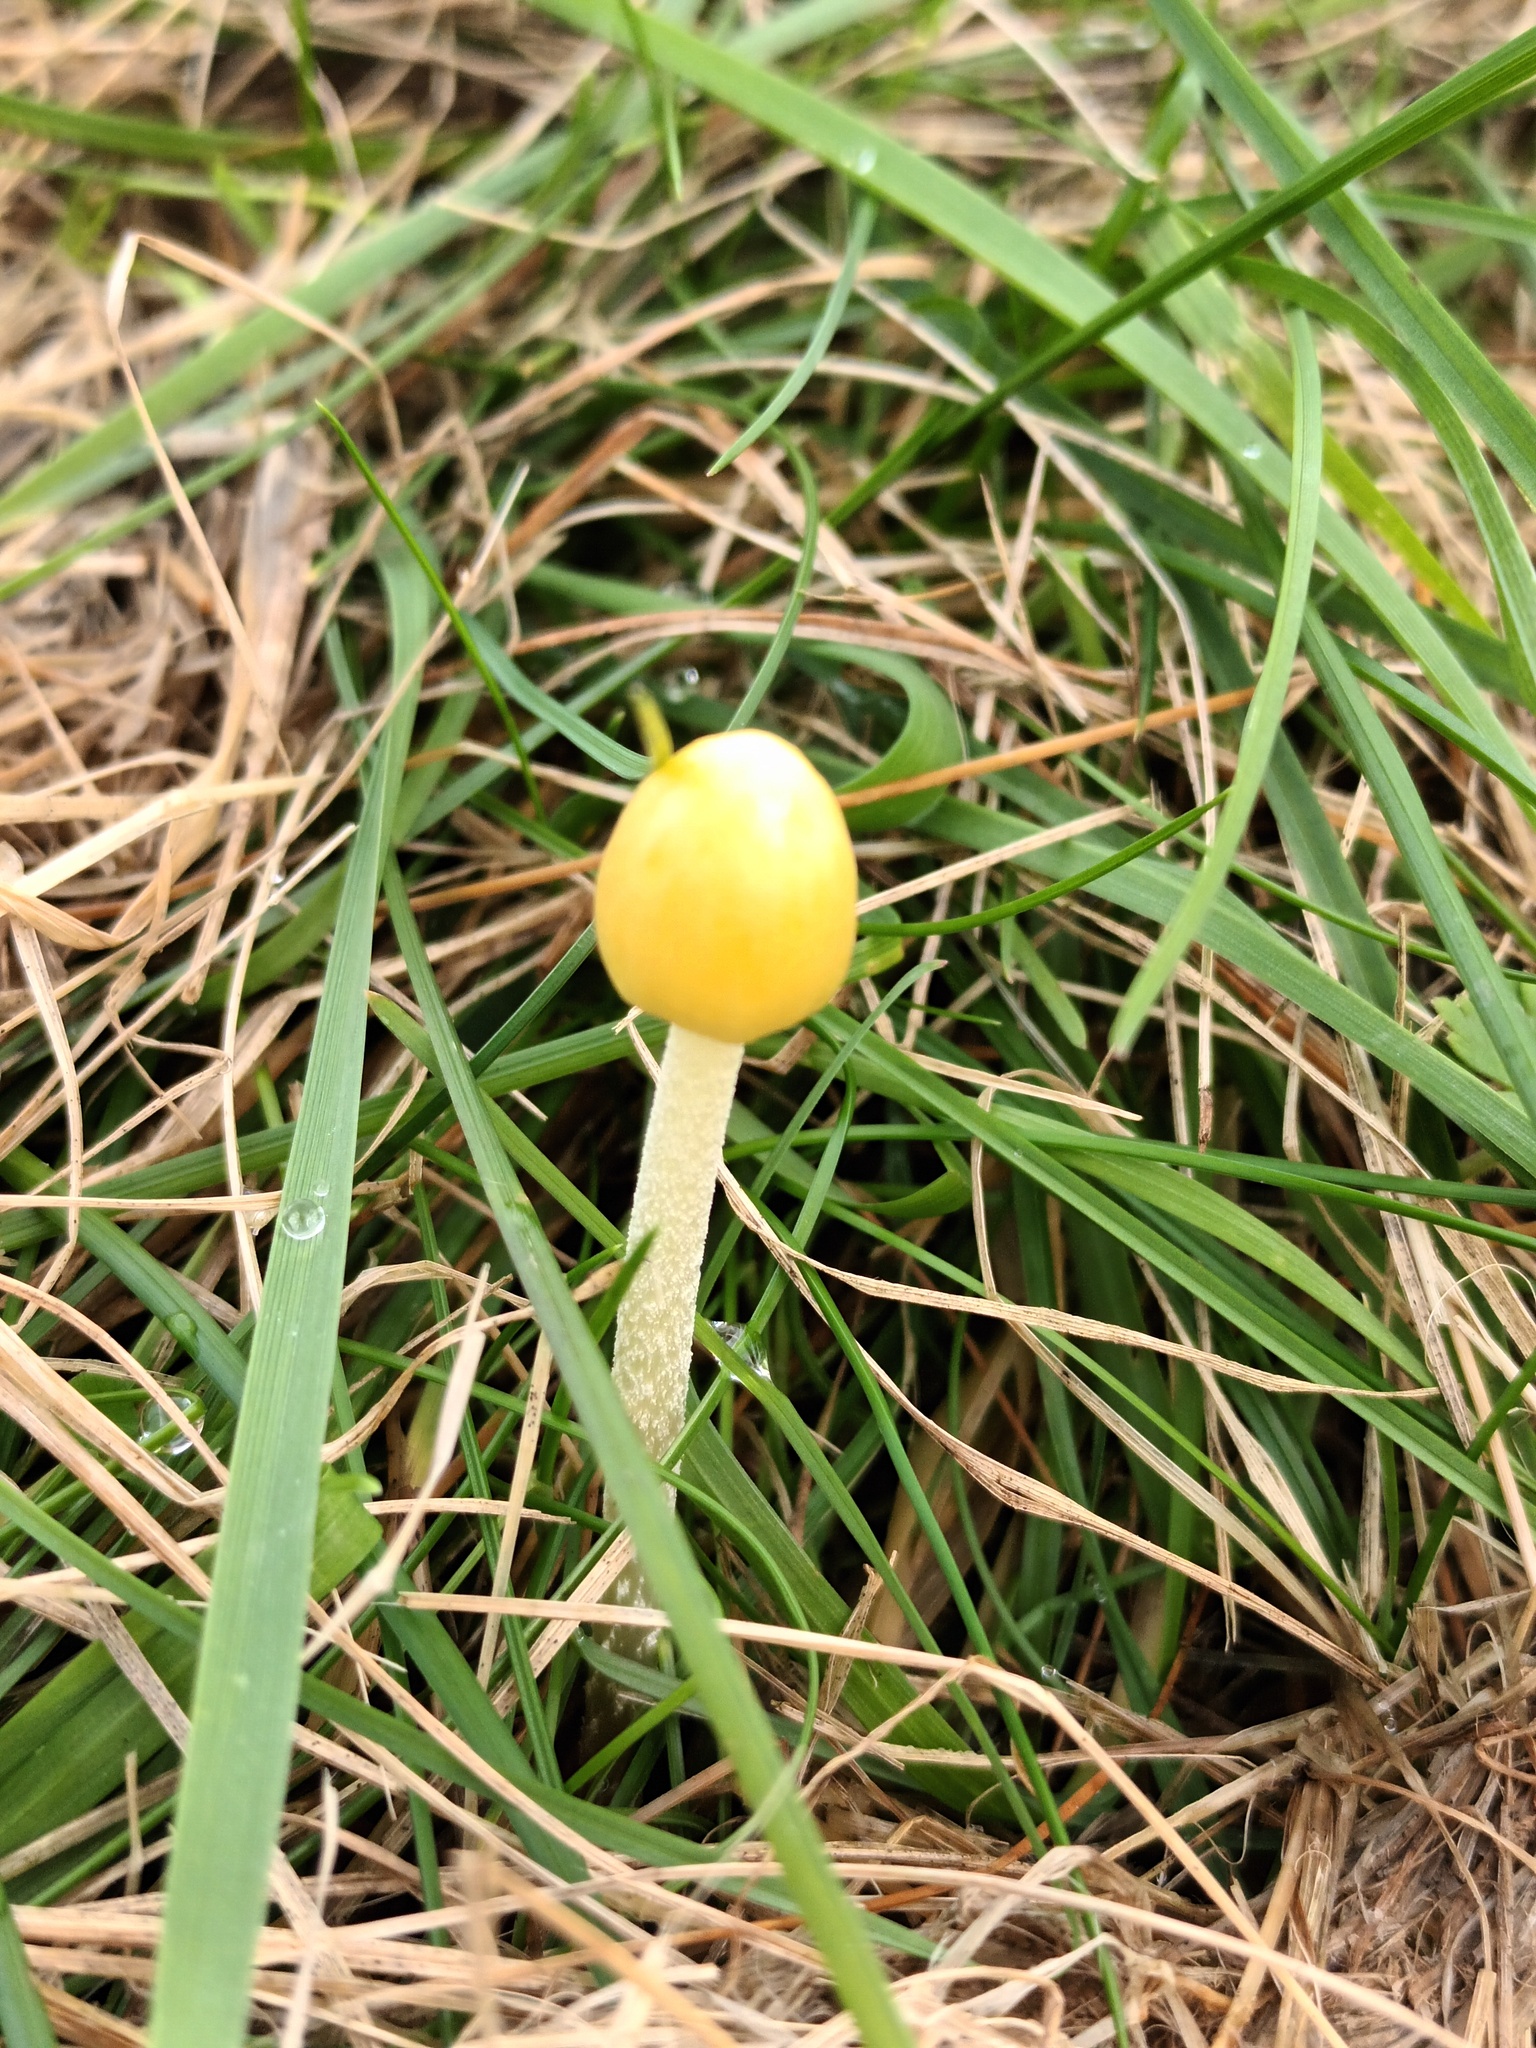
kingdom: Fungi
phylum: Basidiomycota
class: Agaricomycetes
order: Agaricales
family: Bolbitiaceae
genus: Bolbitius
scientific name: Bolbitius titubans
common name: Yellow fieldcap
